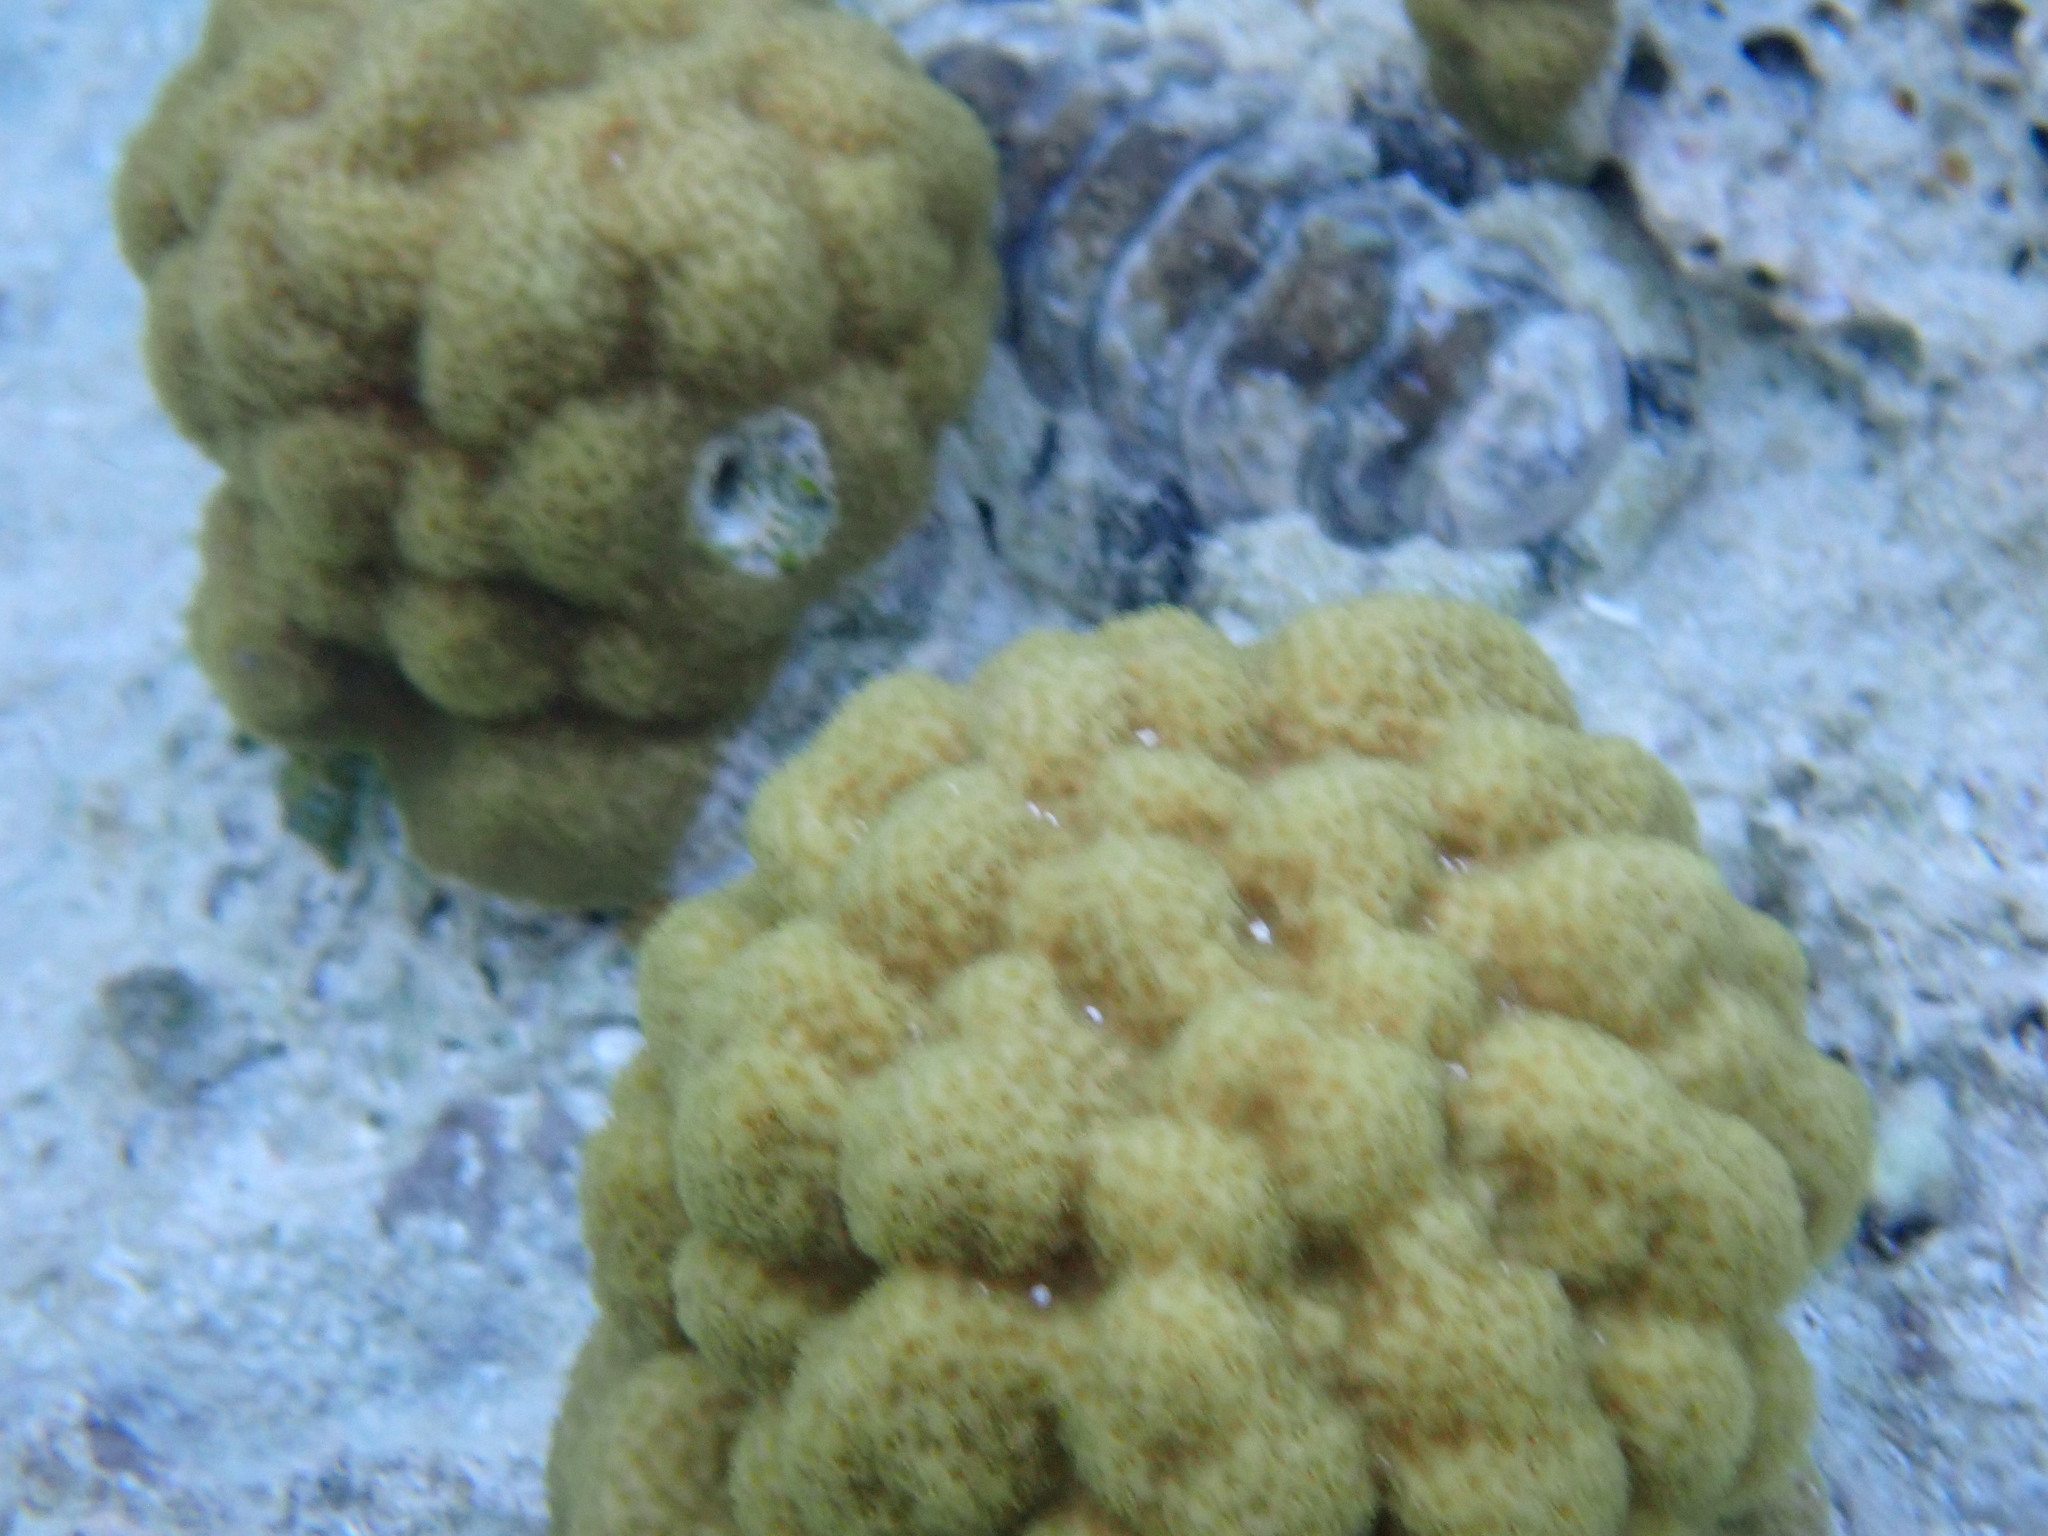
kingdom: Animalia
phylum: Cnidaria
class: Anthozoa
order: Scleractinia
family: Poritidae
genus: Porites
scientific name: Porites astreoides
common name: Mustard hill coral
